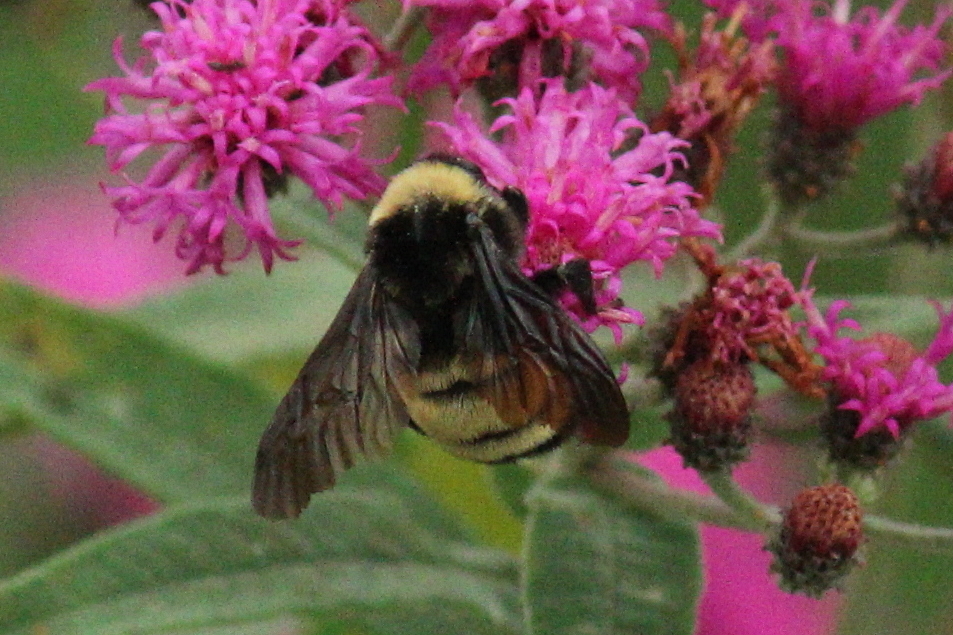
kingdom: Animalia
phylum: Arthropoda
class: Insecta
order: Hymenoptera
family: Apidae
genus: Bombus
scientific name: Bombus pensylvanicus
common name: Bumble bee
